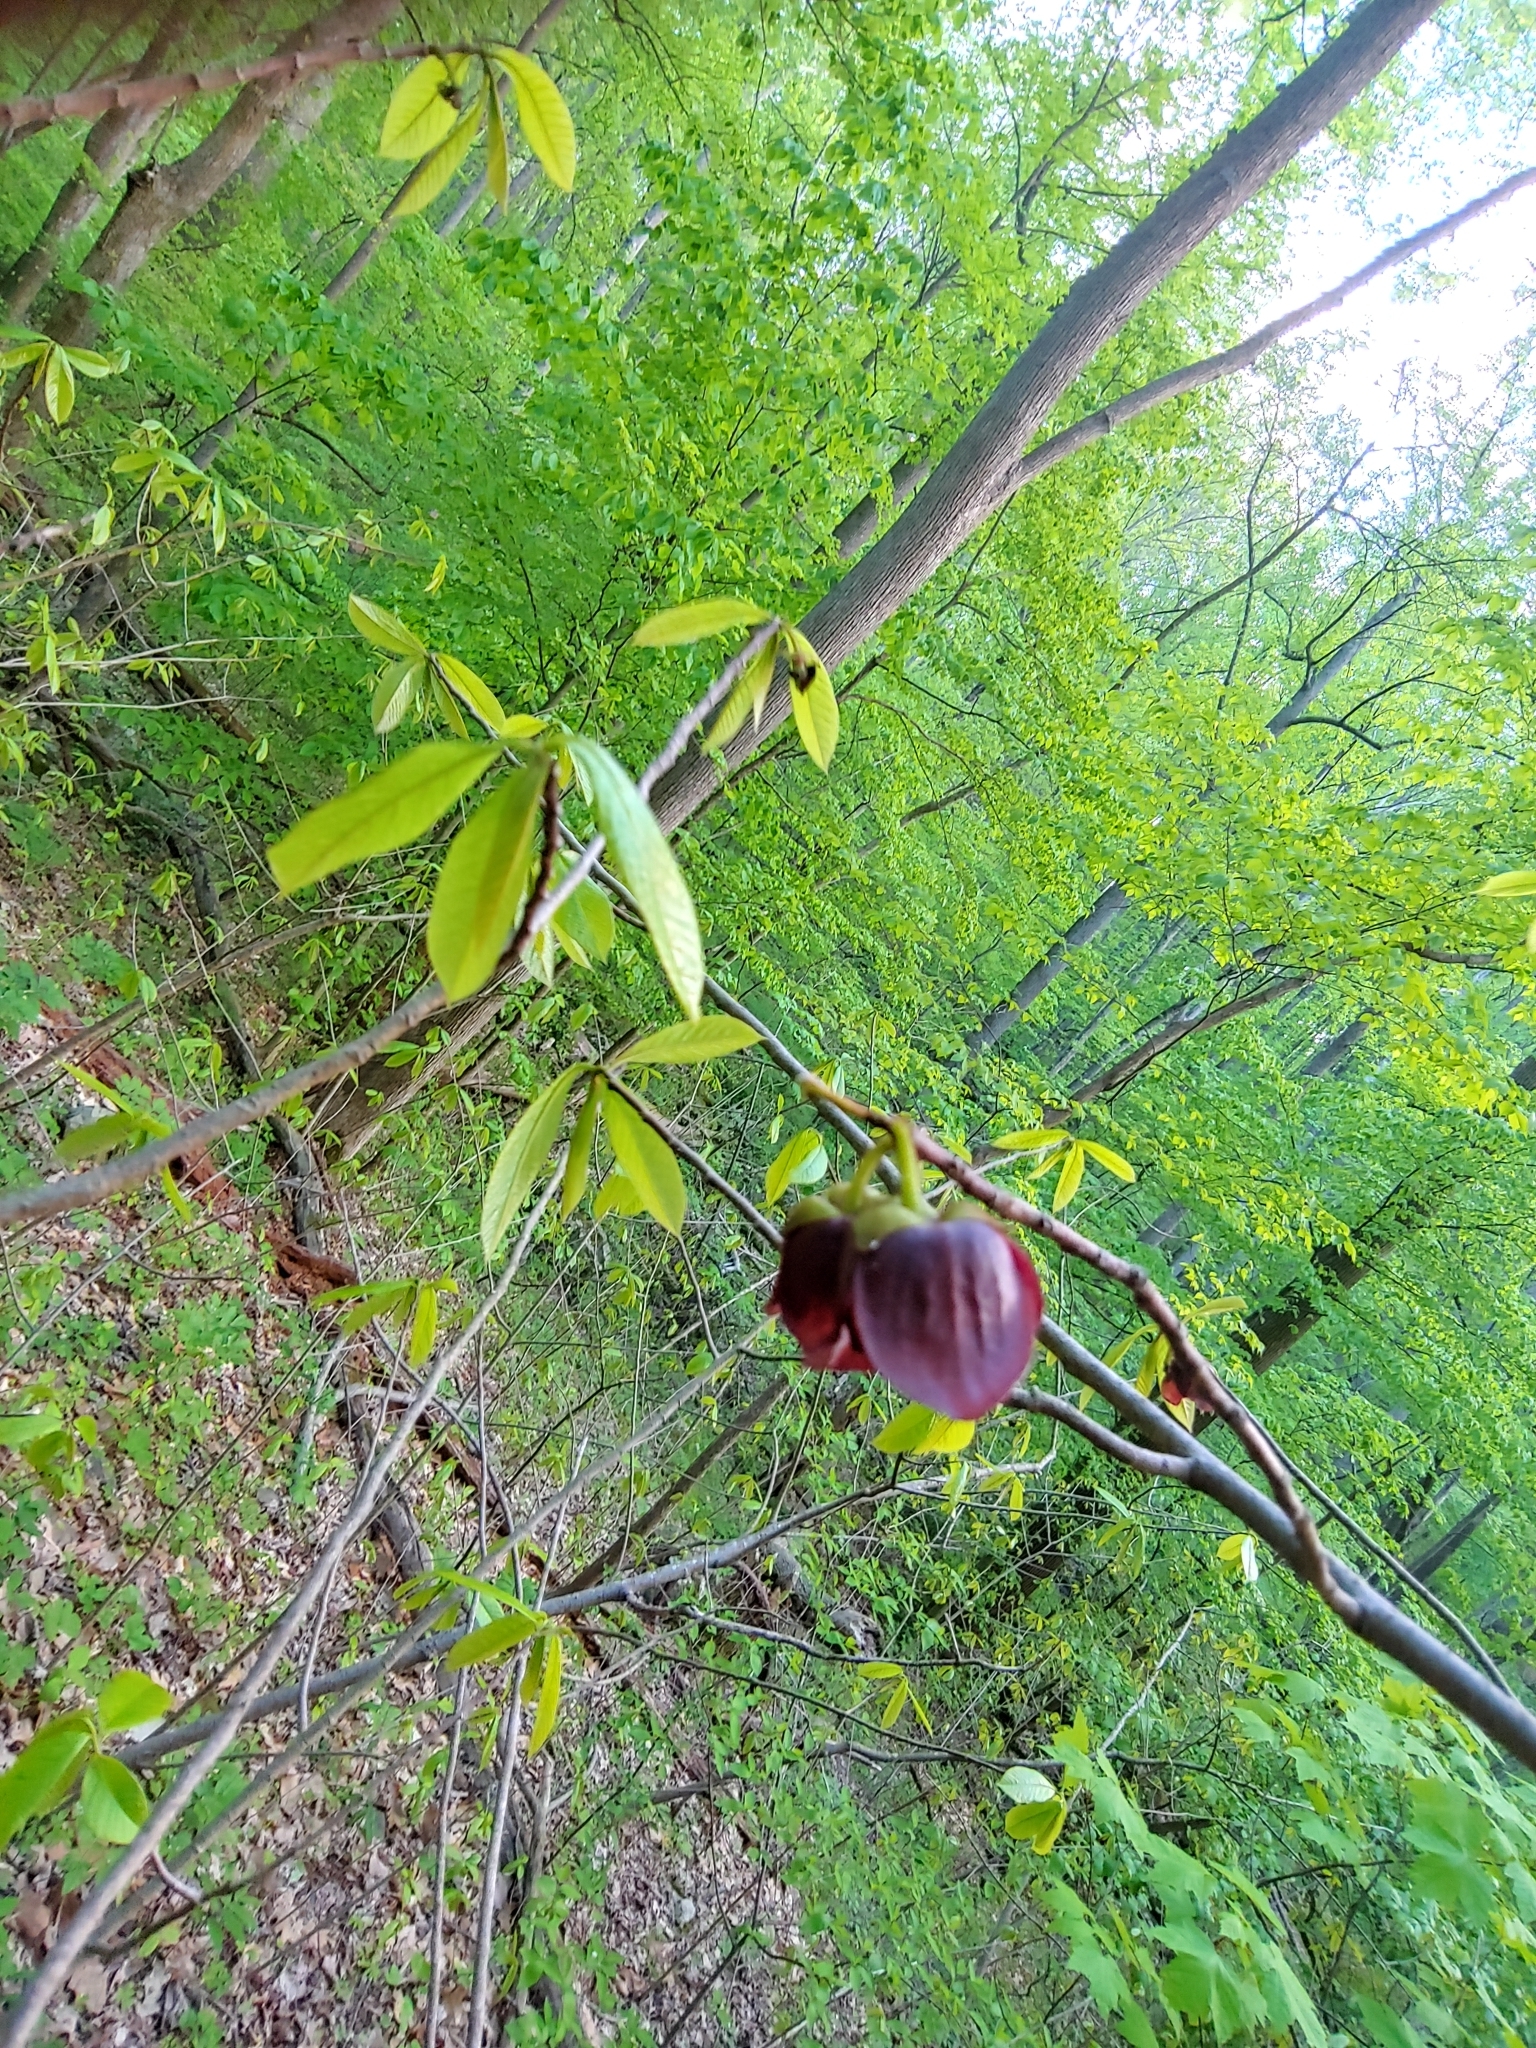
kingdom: Plantae
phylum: Tracheophyta
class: Magnoliopsida
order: Magnoliales
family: Annonaceae
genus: Asimina
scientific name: Asimina triloba
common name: Dog-banana
